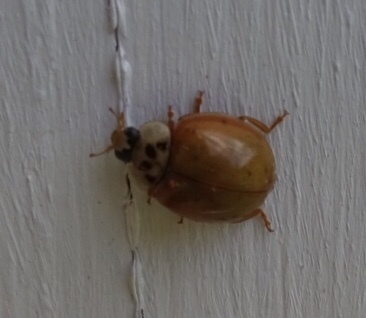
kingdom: Animalia
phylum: Arthropoda
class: Insecta
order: Coleoptera
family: Coccinellidae
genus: Harmonia
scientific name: Harmonia axyridis
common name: Harlequin ladybird
